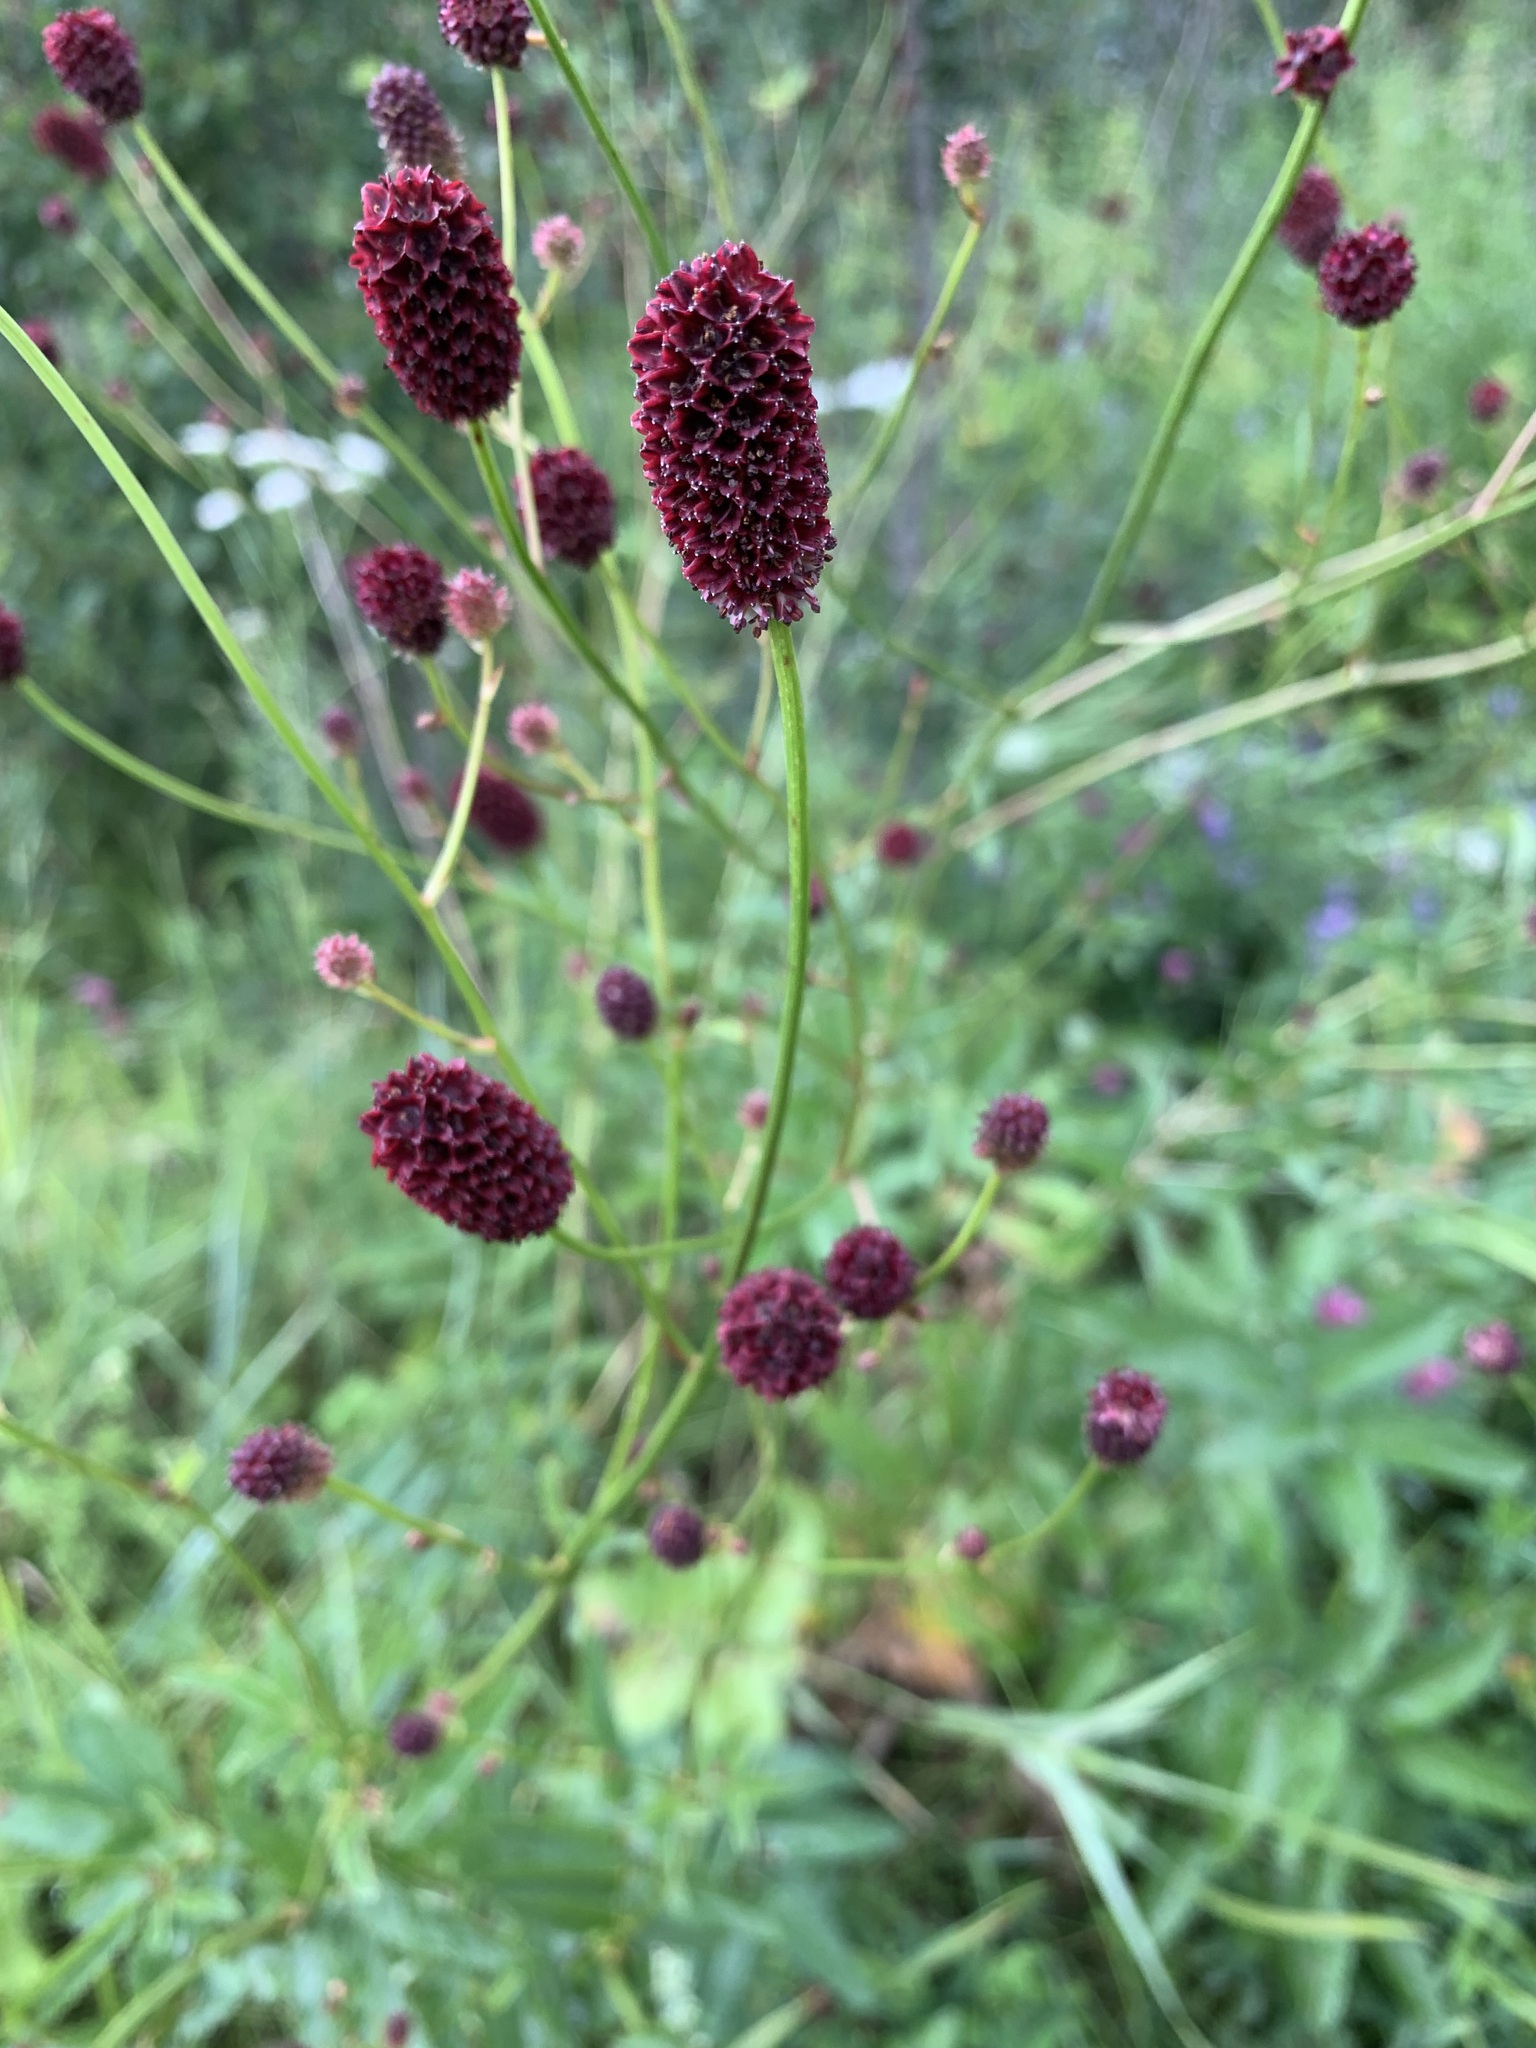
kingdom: Plantae
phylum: Tracheophyta
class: Magnoliopsida
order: Rosales
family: Rosaceae
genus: Sanguisorba
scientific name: Sanguisorba officinalis
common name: Great burnet
